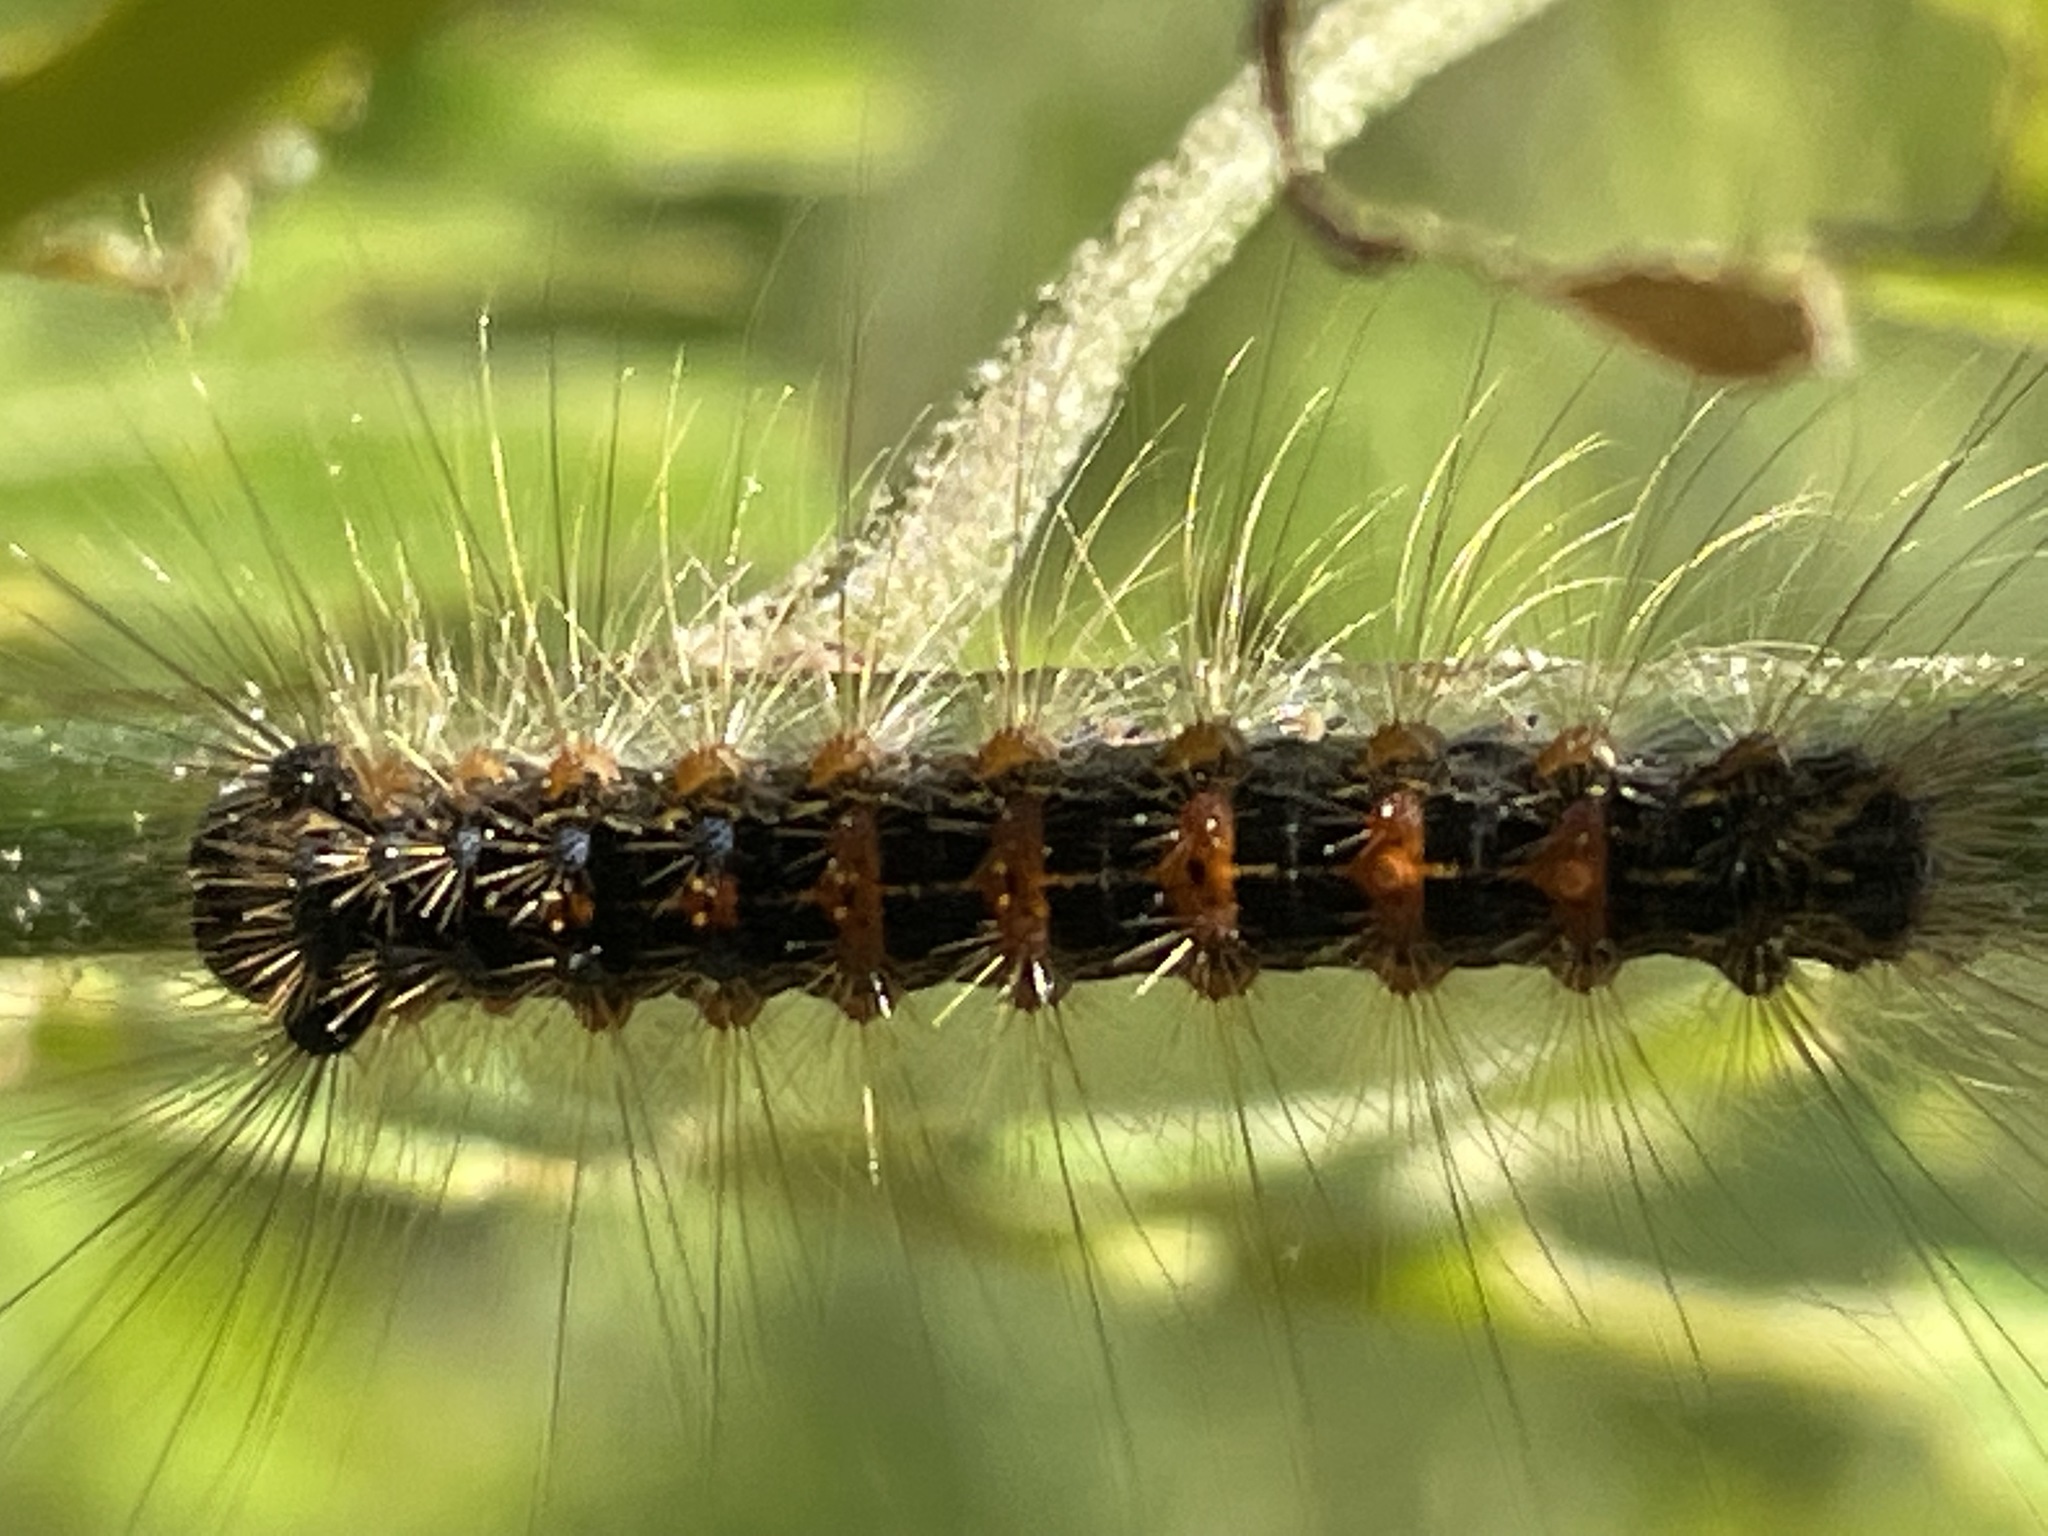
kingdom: Animalia
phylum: Arthropoda
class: Insecta
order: Lepidoptera
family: Erebidae
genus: Lymantria
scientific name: Lymantria dispar
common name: Gypsy moth
